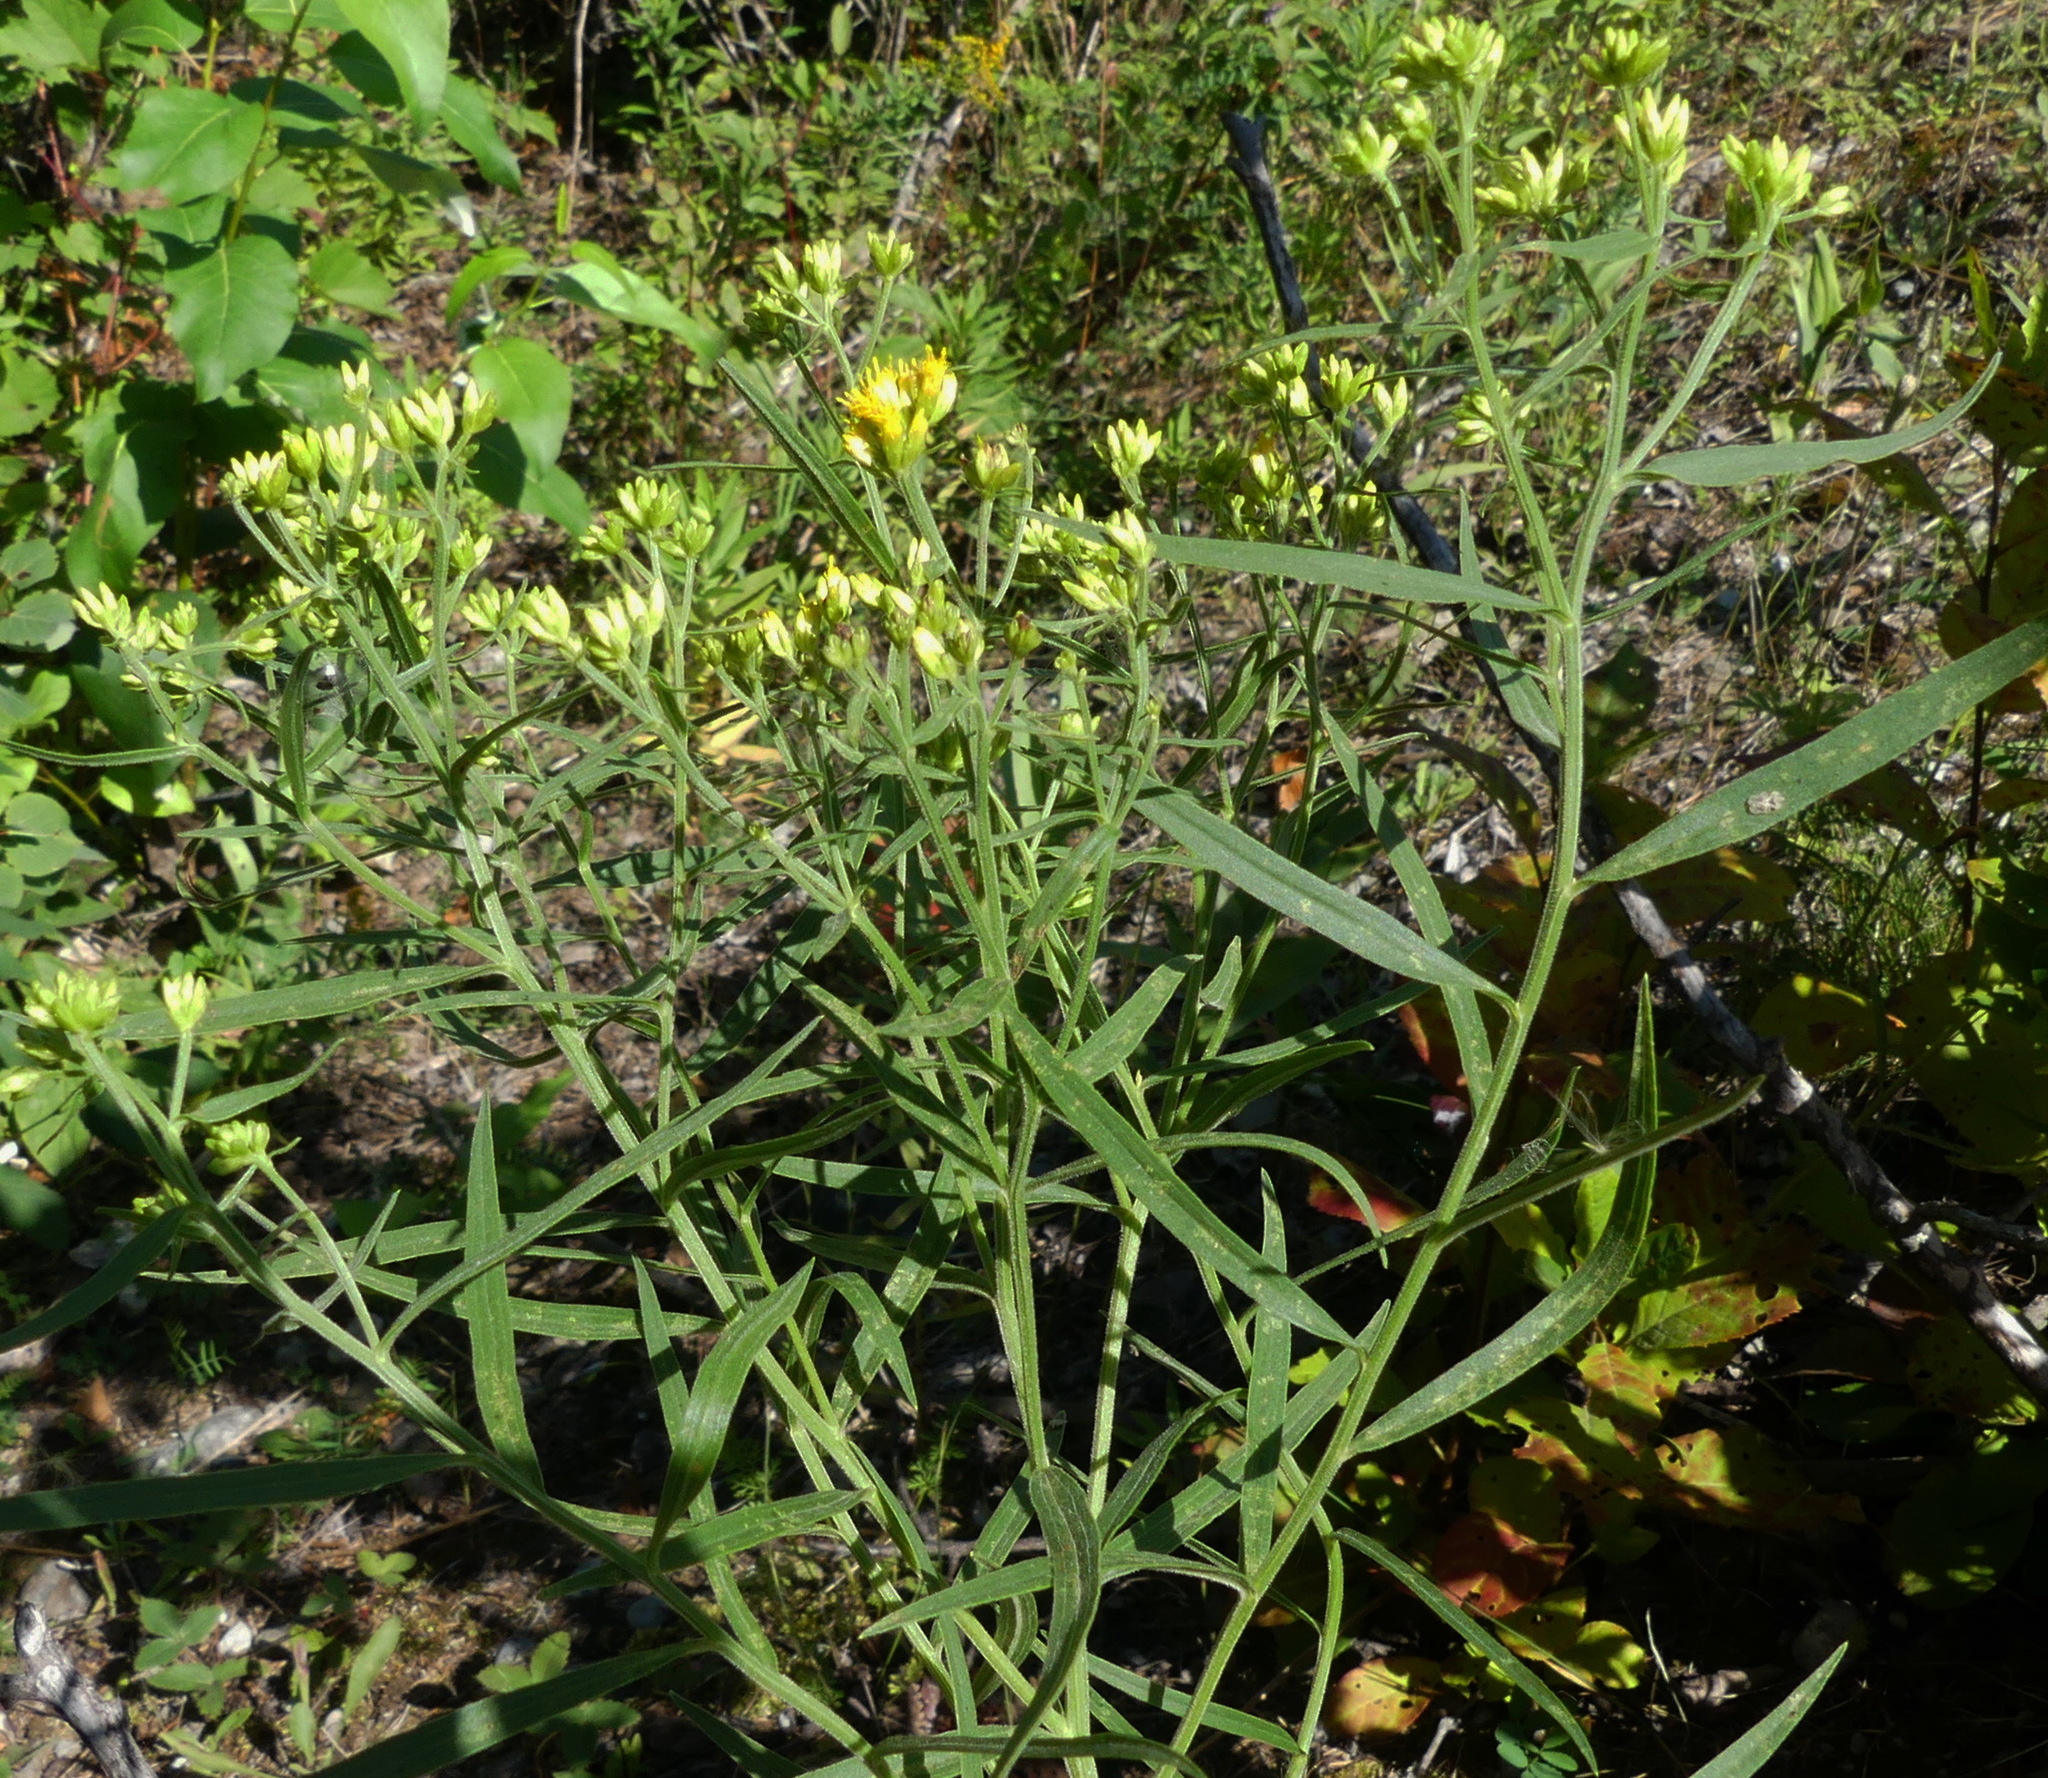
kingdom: Plantae
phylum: Tracheophyta
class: Magnoliopsida
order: Asterales
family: Asteraceae
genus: Euthamia
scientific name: Euthamia graminifolia
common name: Common goldentop
